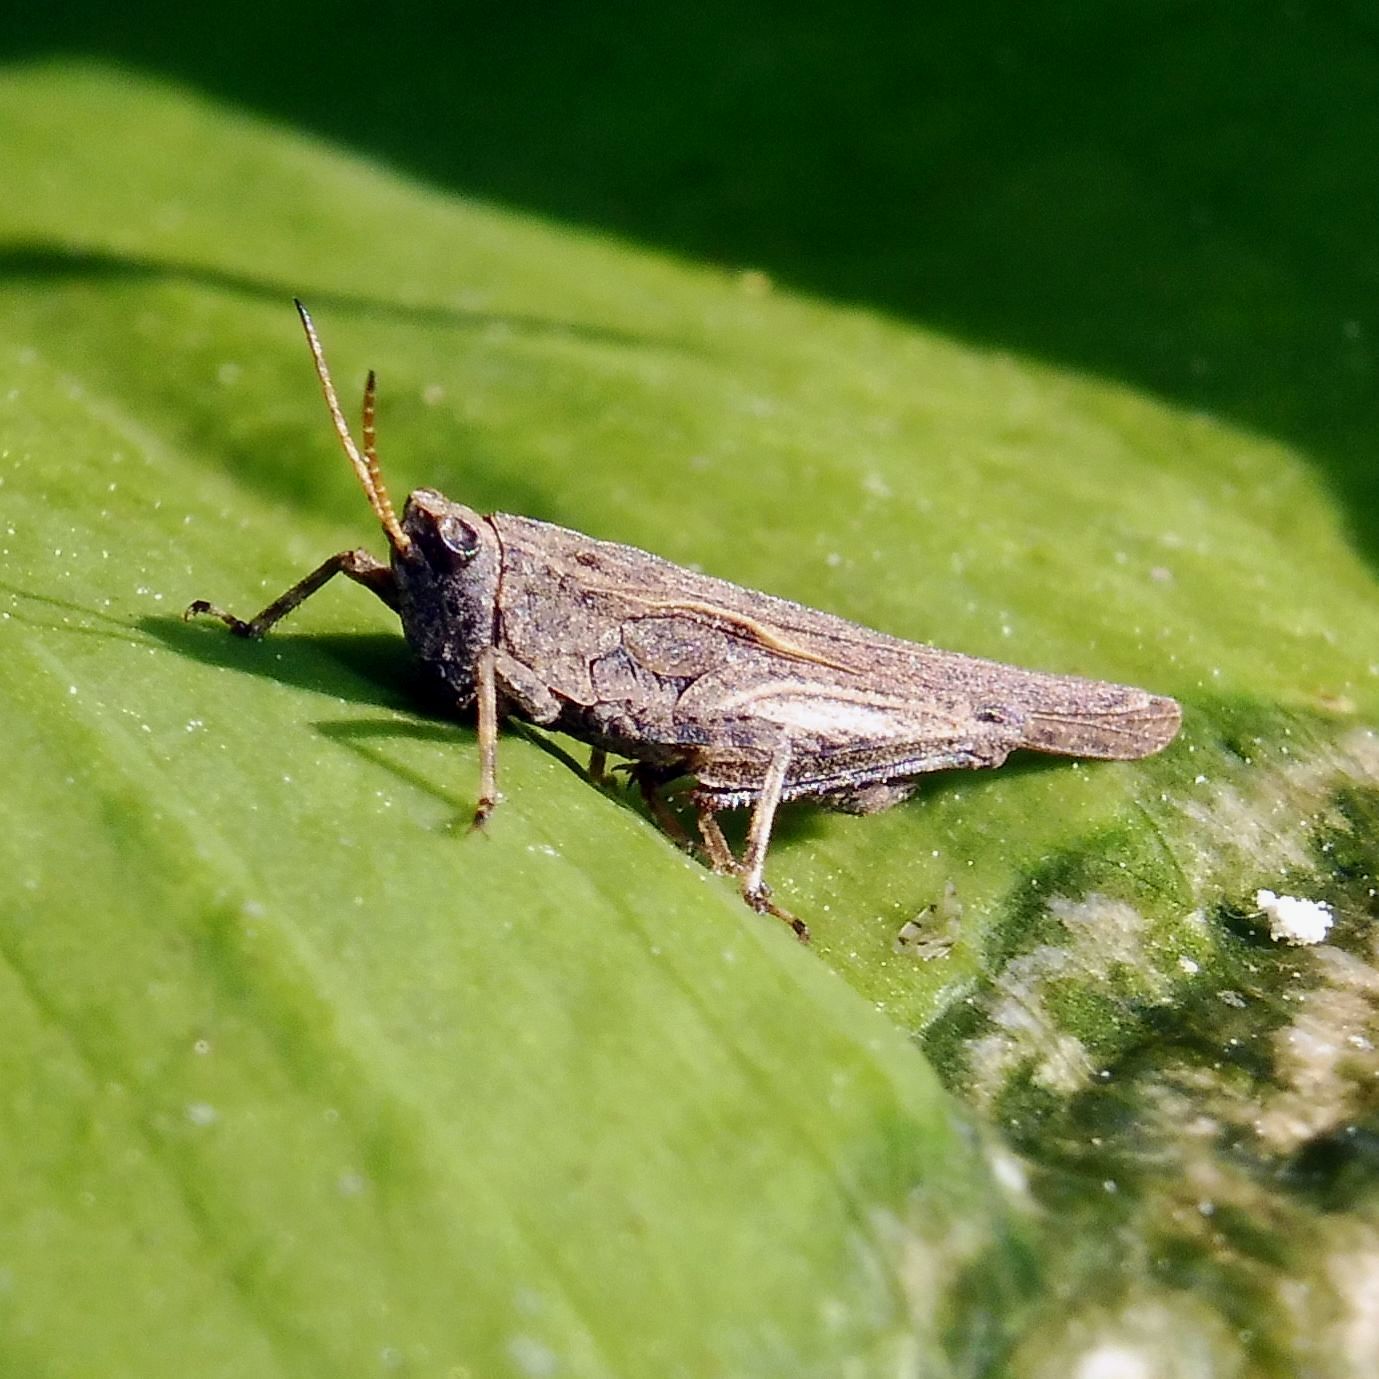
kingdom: Animalia
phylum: Arthropoda
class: Insecta
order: Orthoptera
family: Tetrigidae
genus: Tetrix
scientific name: Tetrix subulata
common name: Slender ground-hopper
